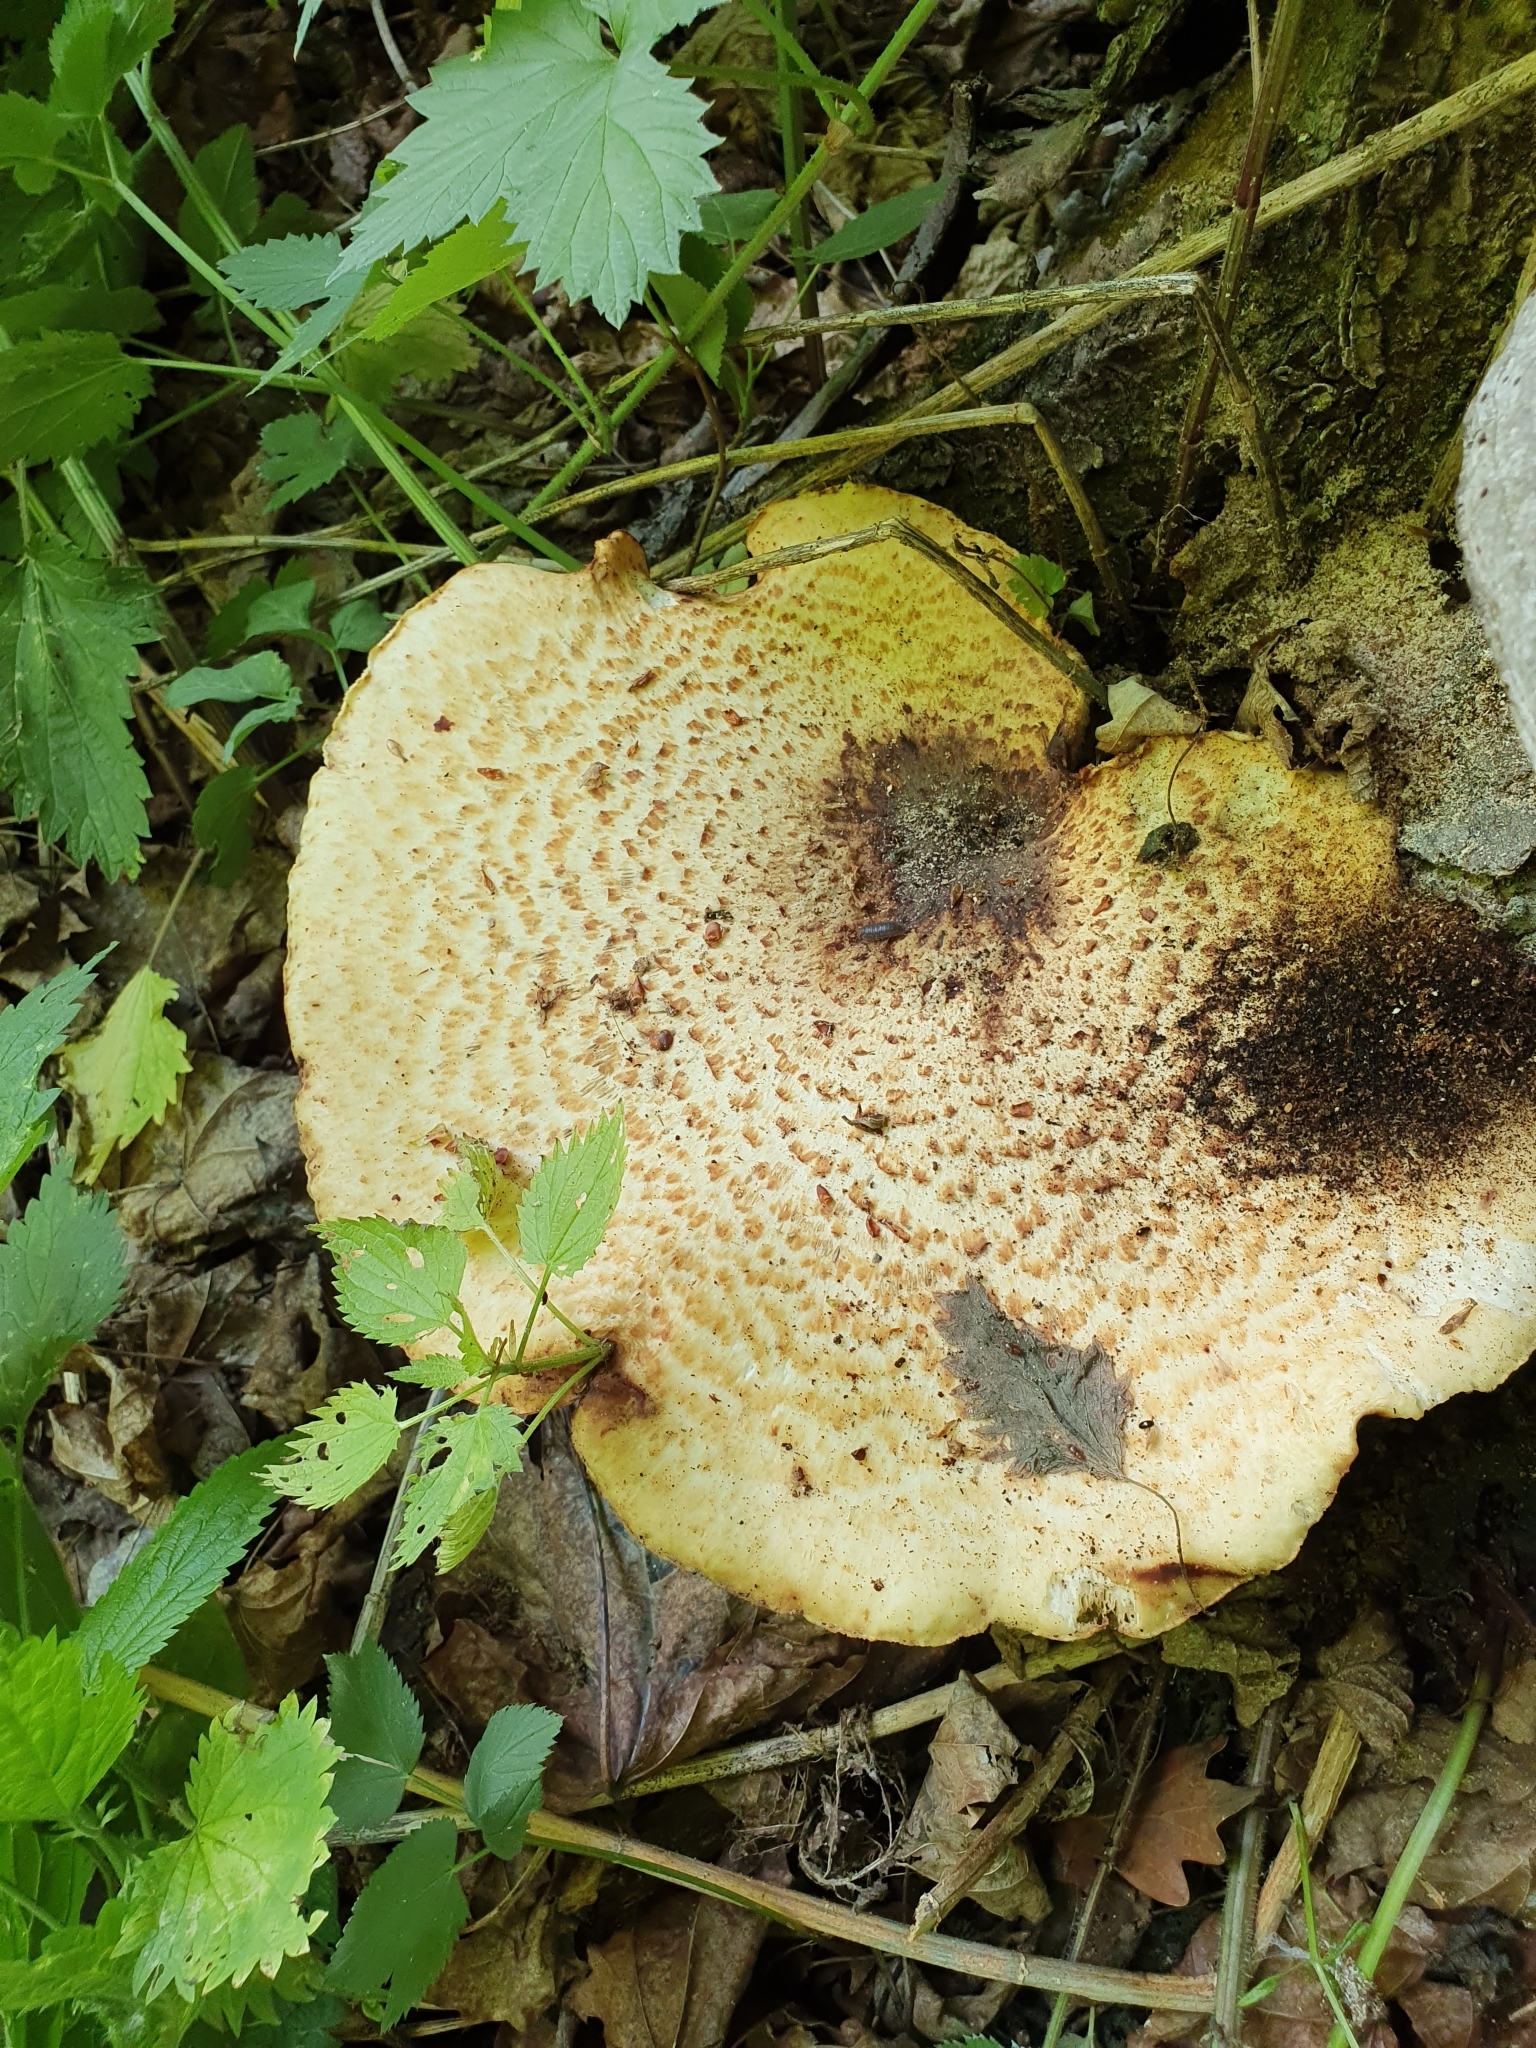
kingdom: Fungi
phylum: Basidiomycota
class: Agaricomycetes
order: Polyporales
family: Polyporaceae
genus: Cerioporus
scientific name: Cerioporus squamosus
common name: Dryad's saddle
